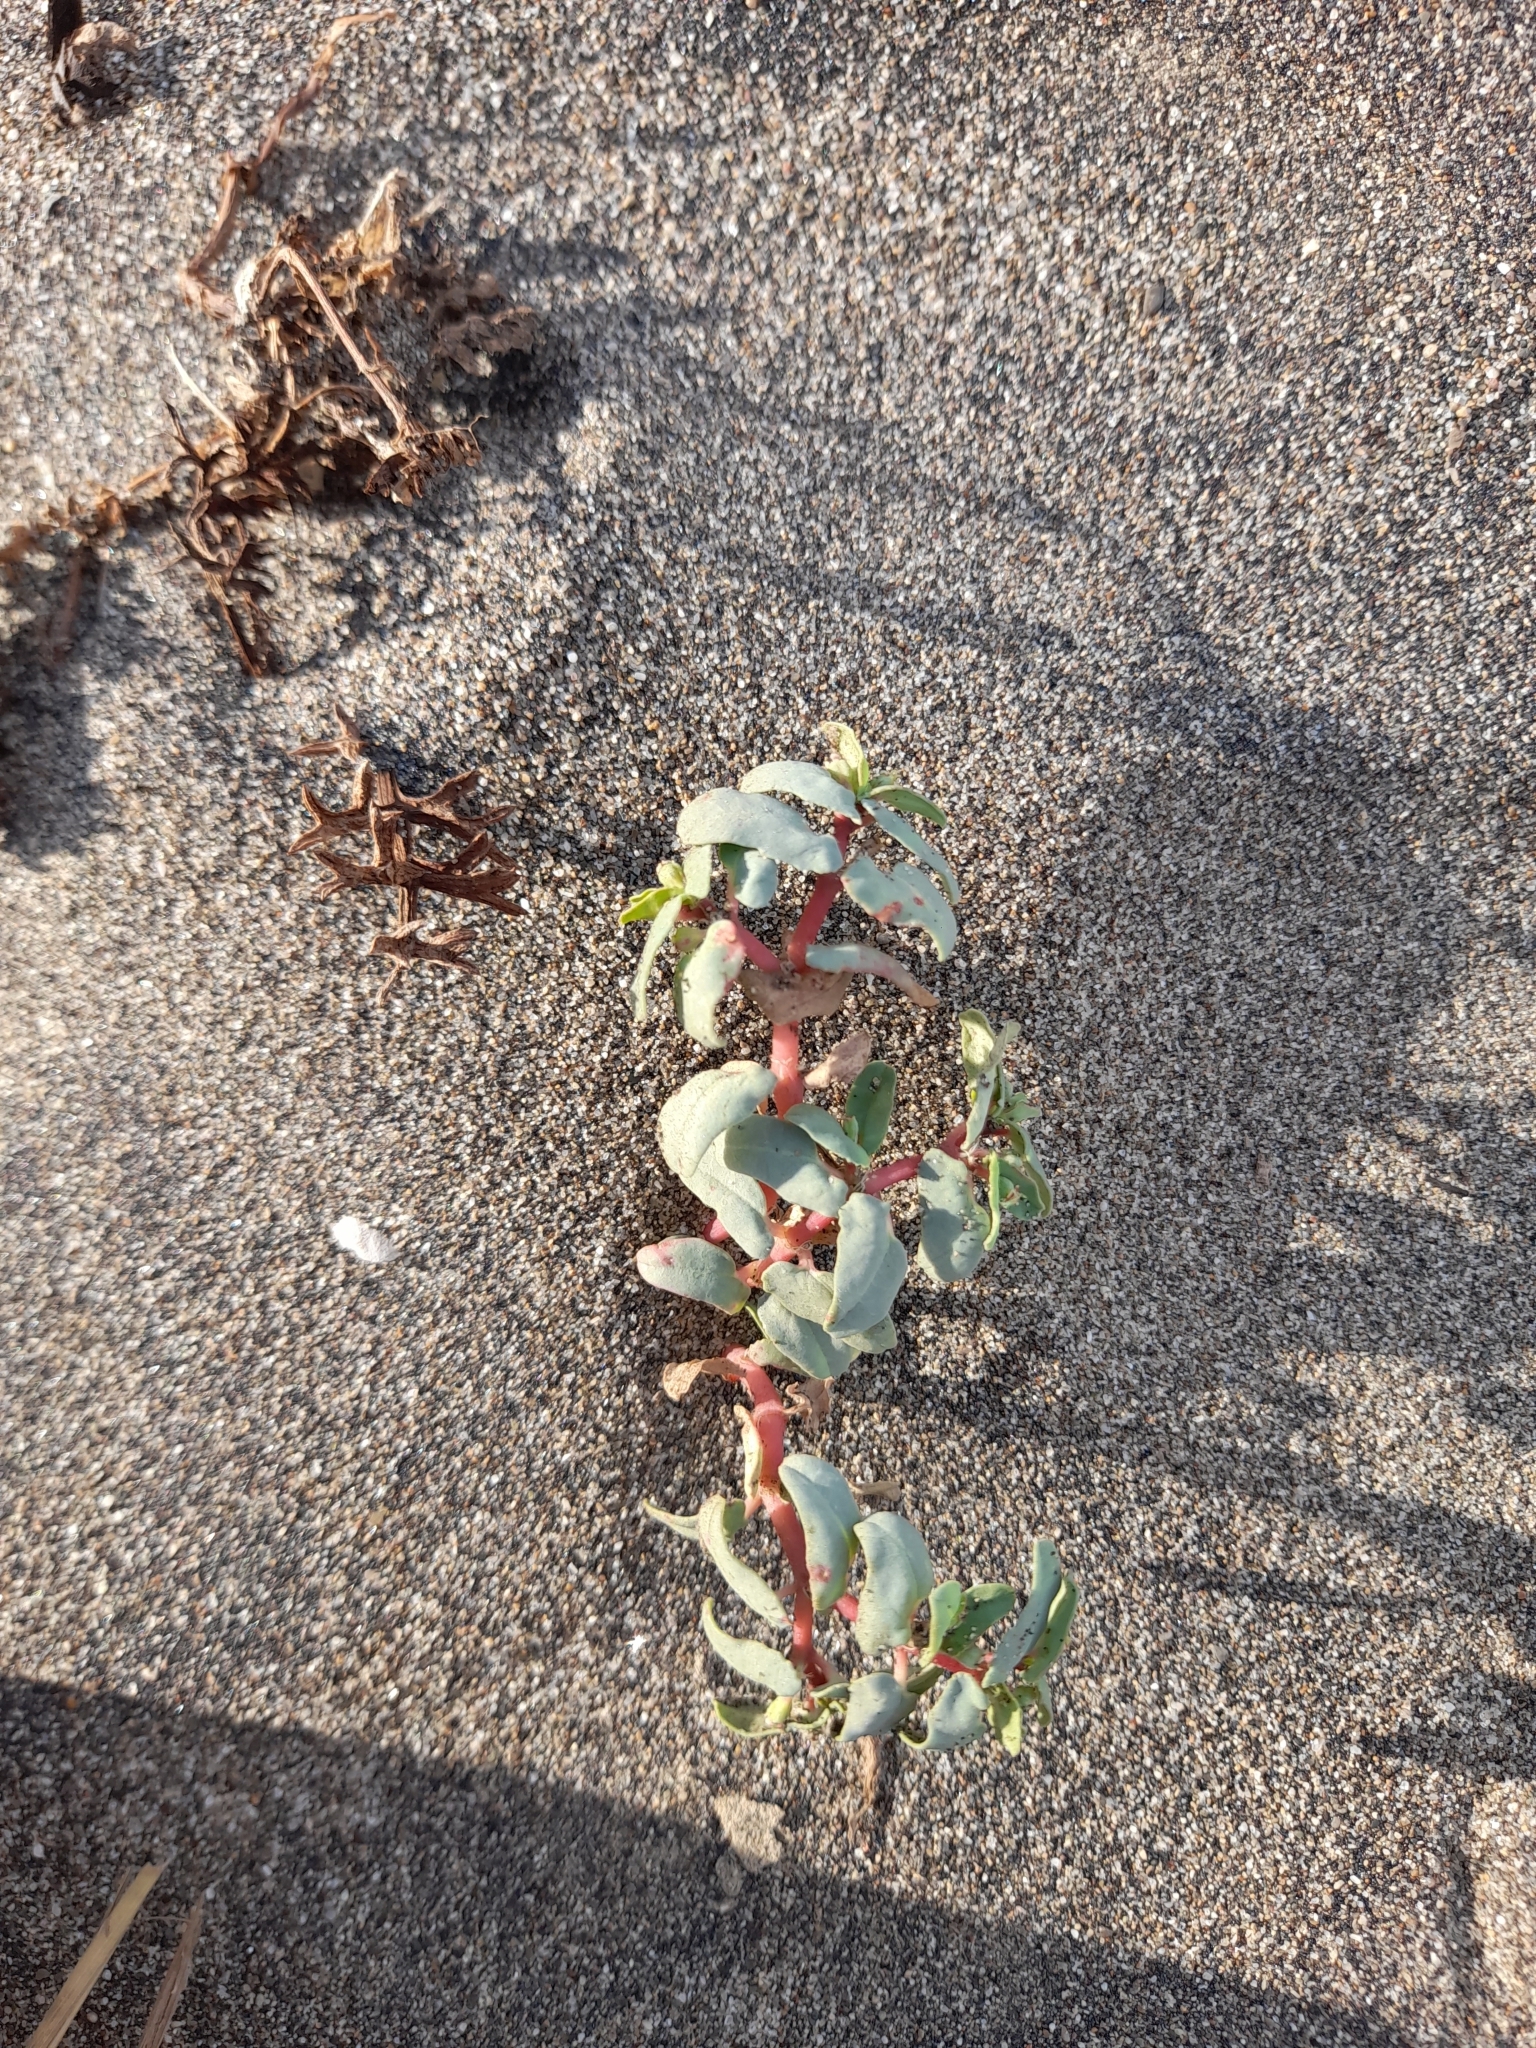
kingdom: Plantae
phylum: Tracheophyta
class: Magnoliopsida
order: Malpighiales
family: Euphorbiaceae
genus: Euphorbia
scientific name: Euphorbia peplis
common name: Purple spurge
